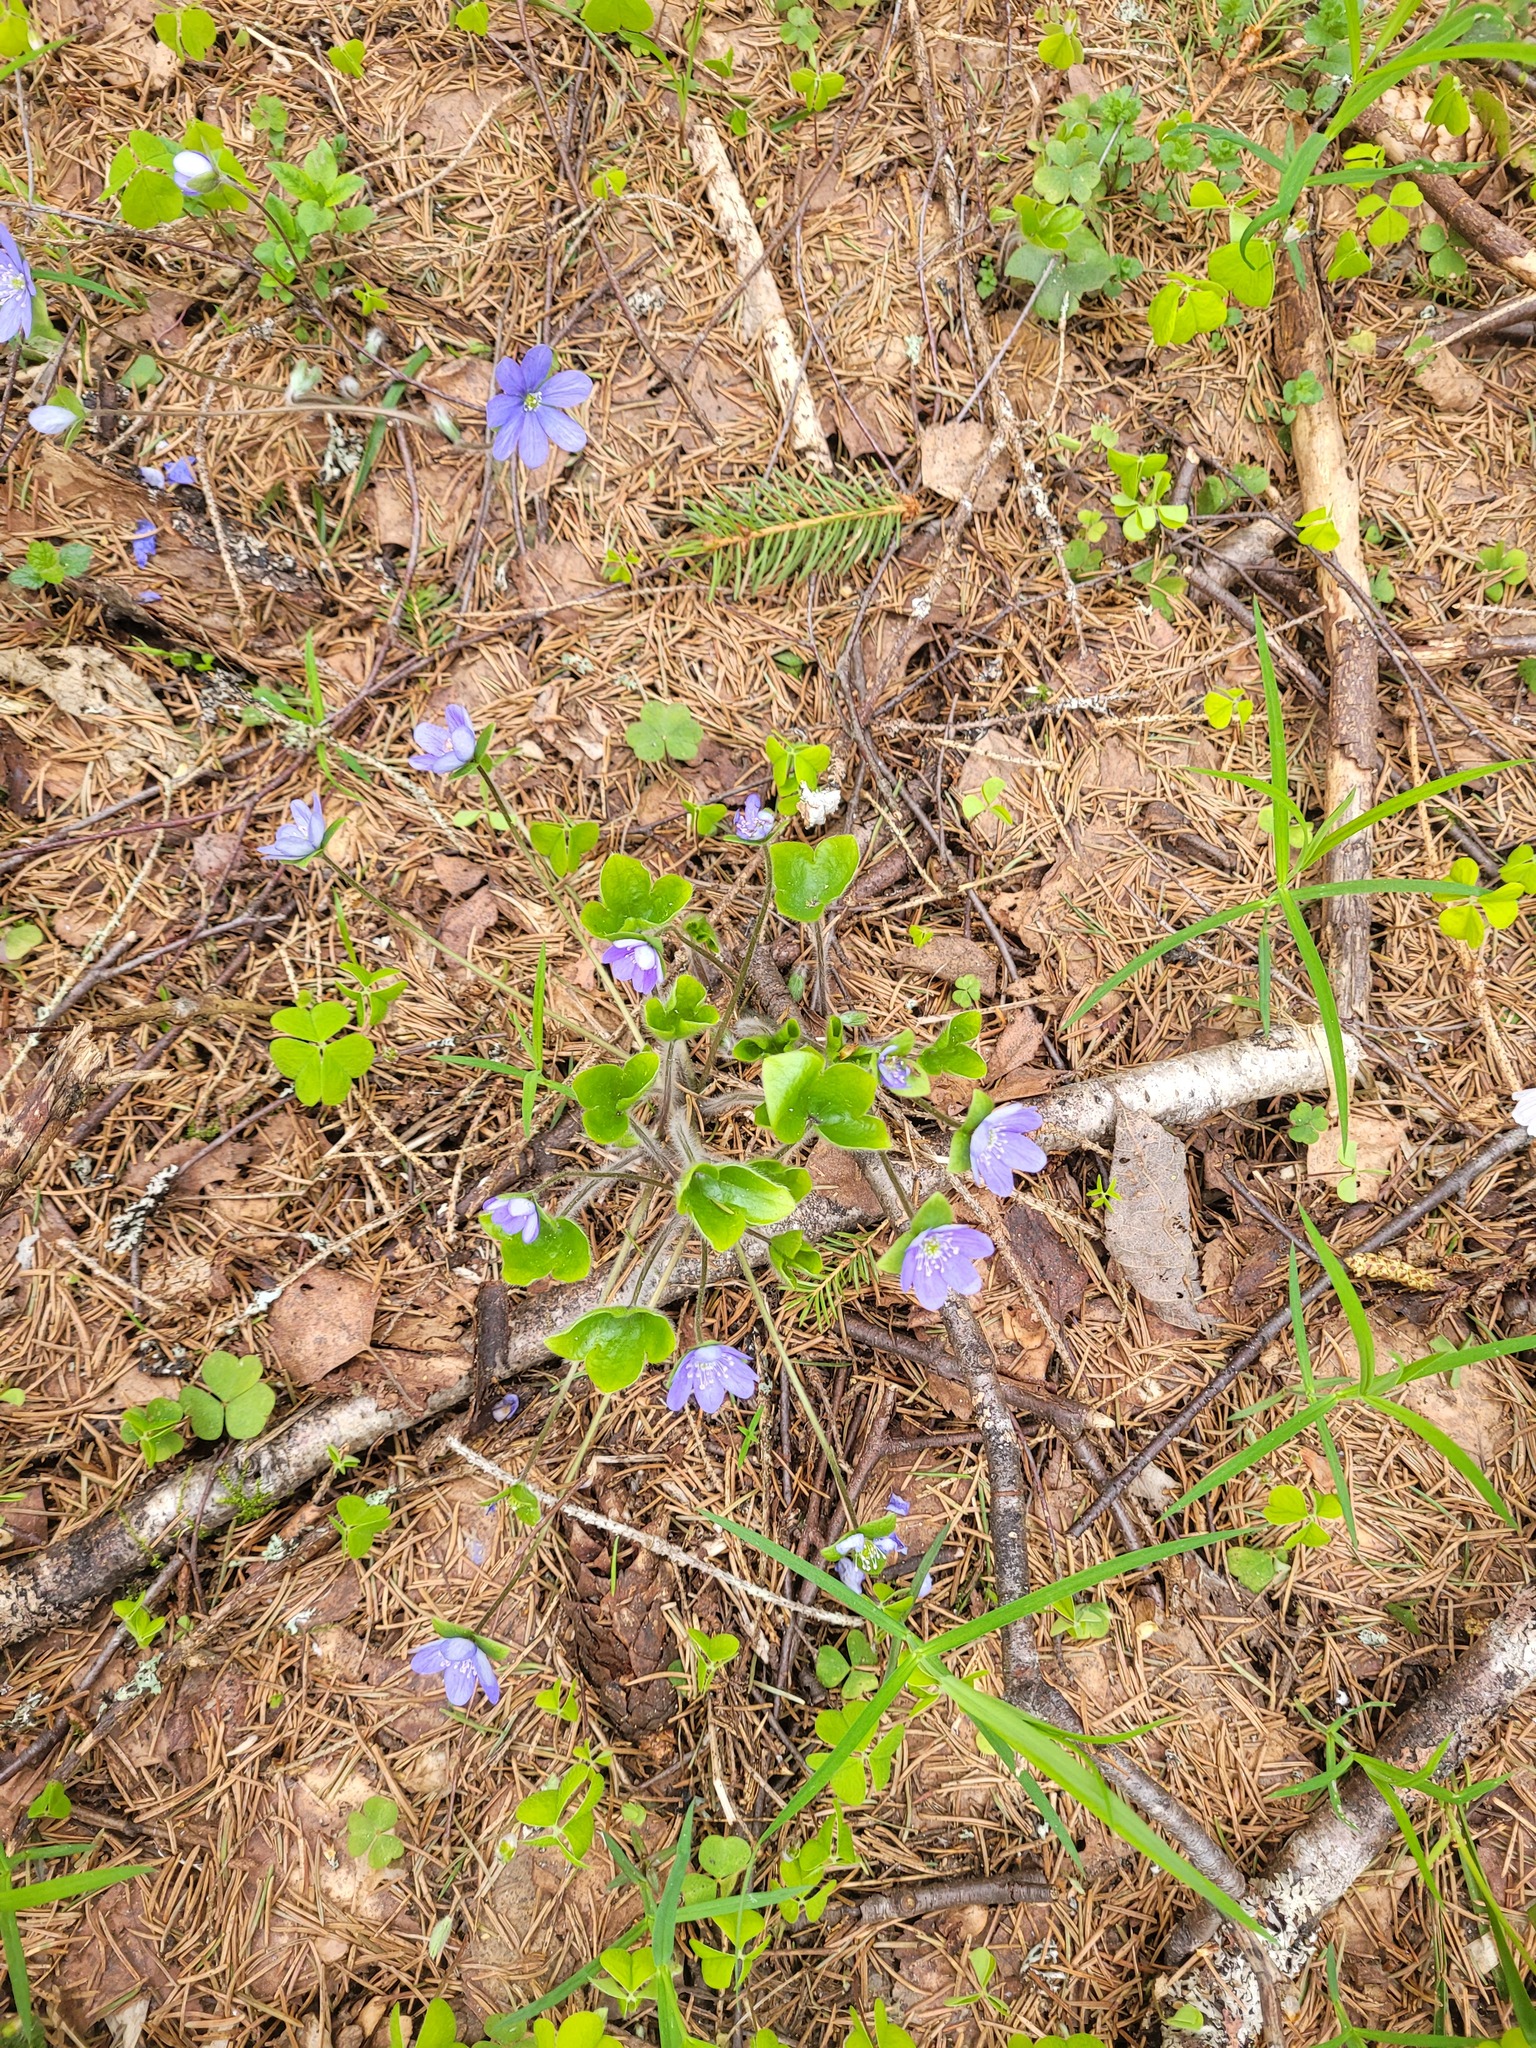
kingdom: Plantae
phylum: Tracheophyta
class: Magnoliopsida
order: Ranunculales
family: Ranunculaceae
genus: Hepatica
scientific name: Hepatica nobilis
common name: Liverleaf
